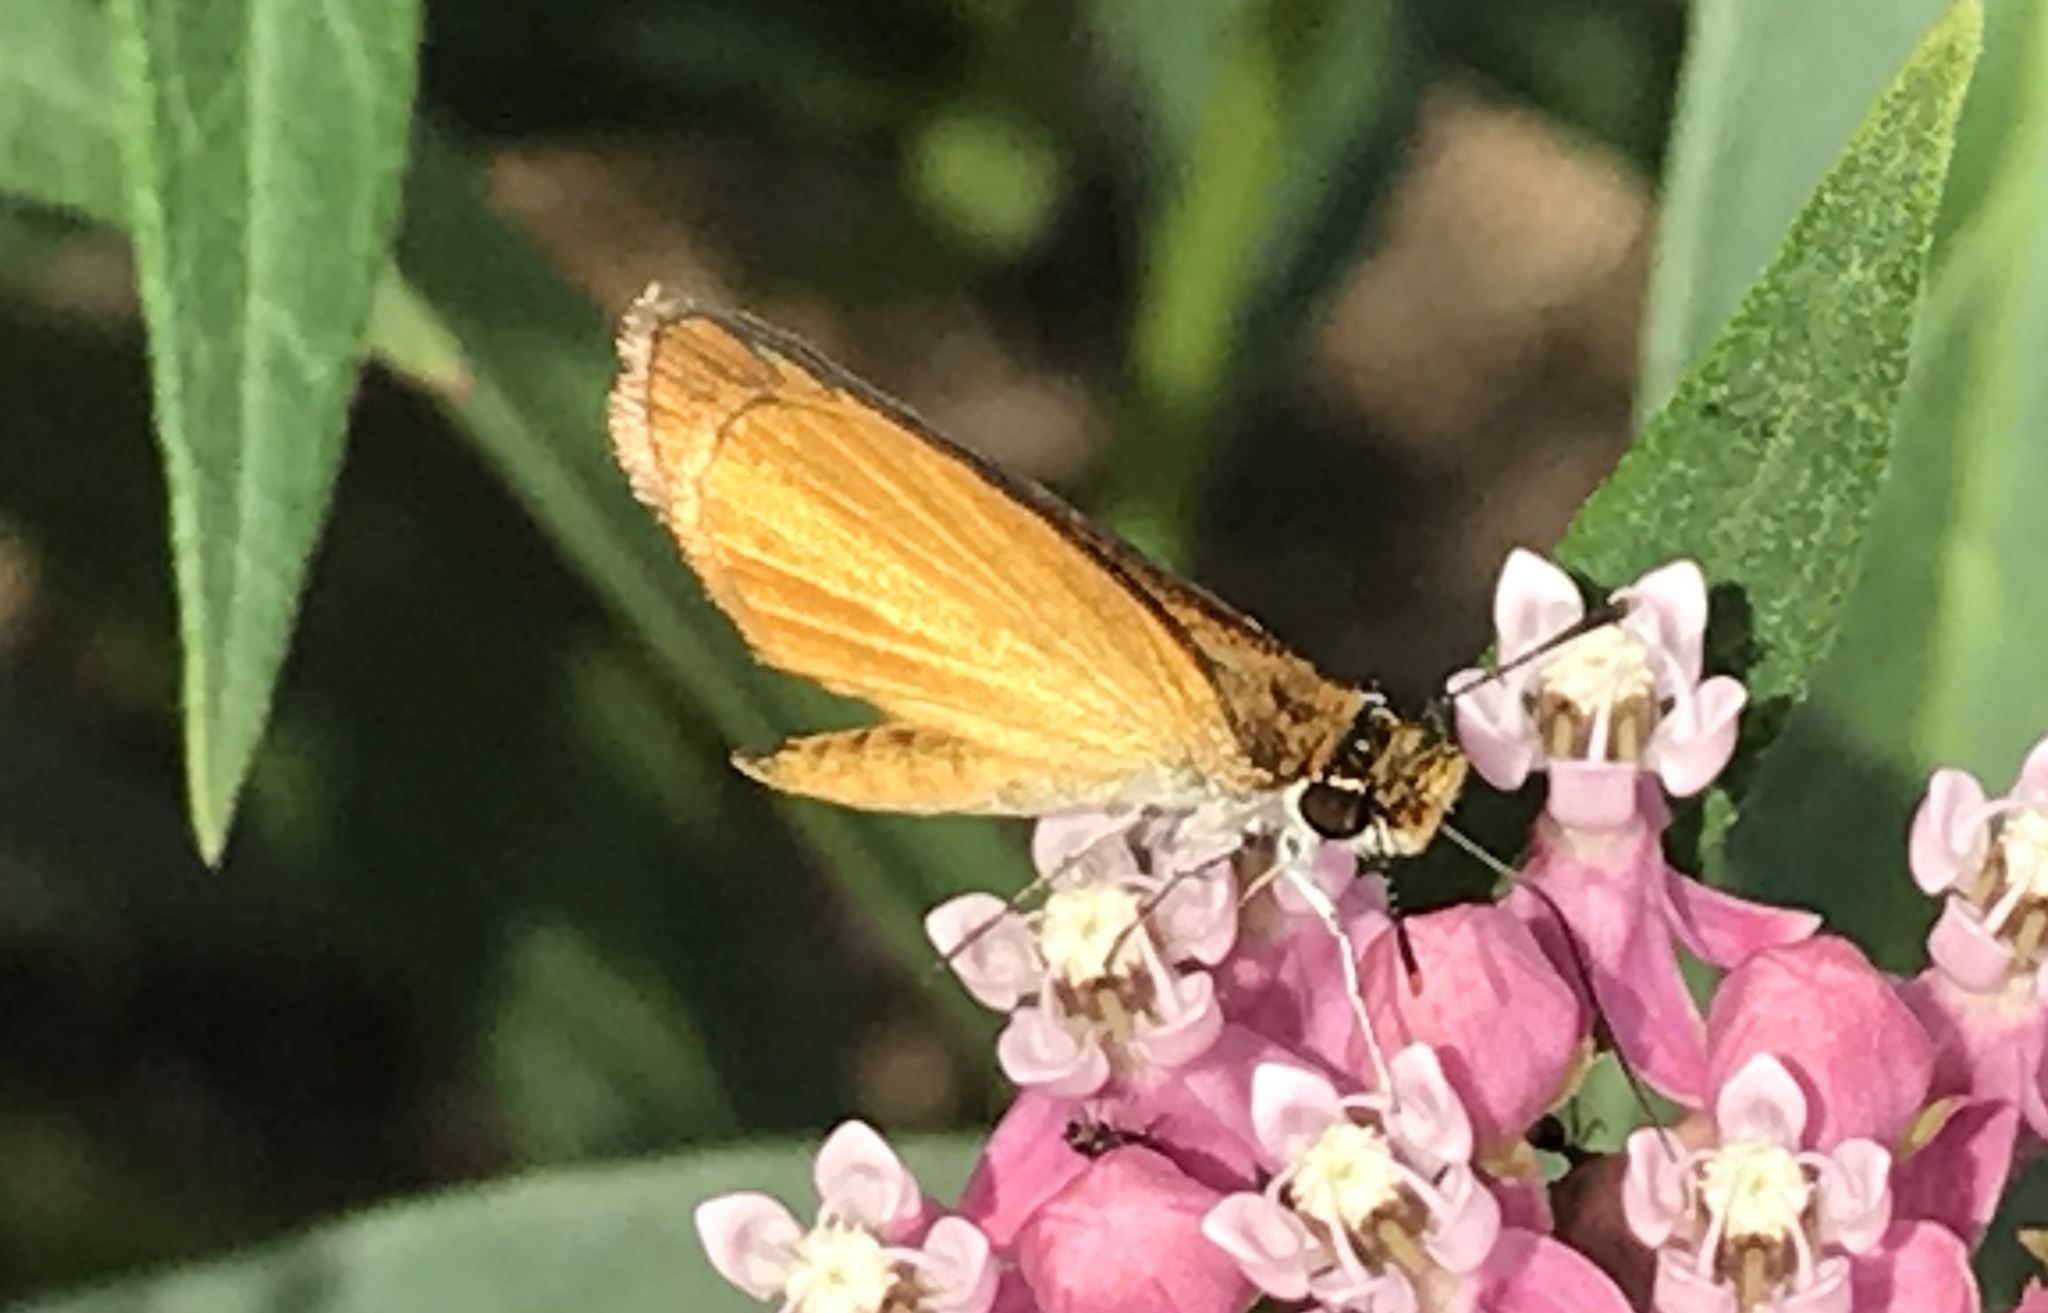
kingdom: Animalia
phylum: Arthropoda
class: Insecta
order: Lepidoptera
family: Hesperiidae
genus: Ancyloxypha
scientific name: Ancyloxypha numitor
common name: Least skipper
